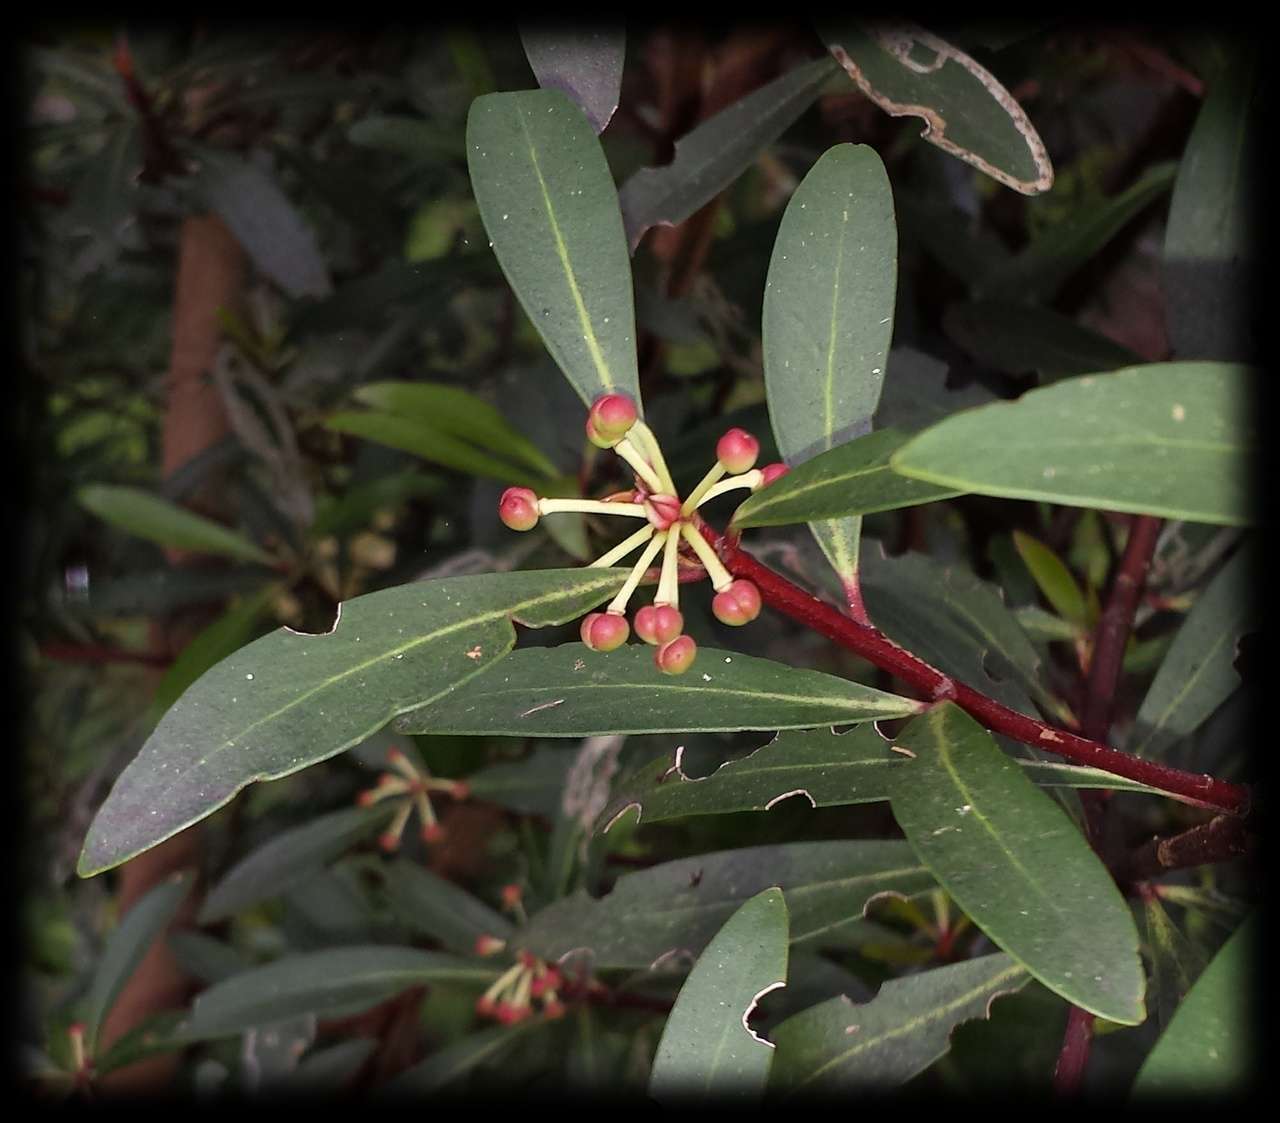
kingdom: Plantae
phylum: Tracheophyta
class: Magnoliopsida
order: Canellales
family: Winteraceae
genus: Drimys
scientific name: Drimys aromatica
